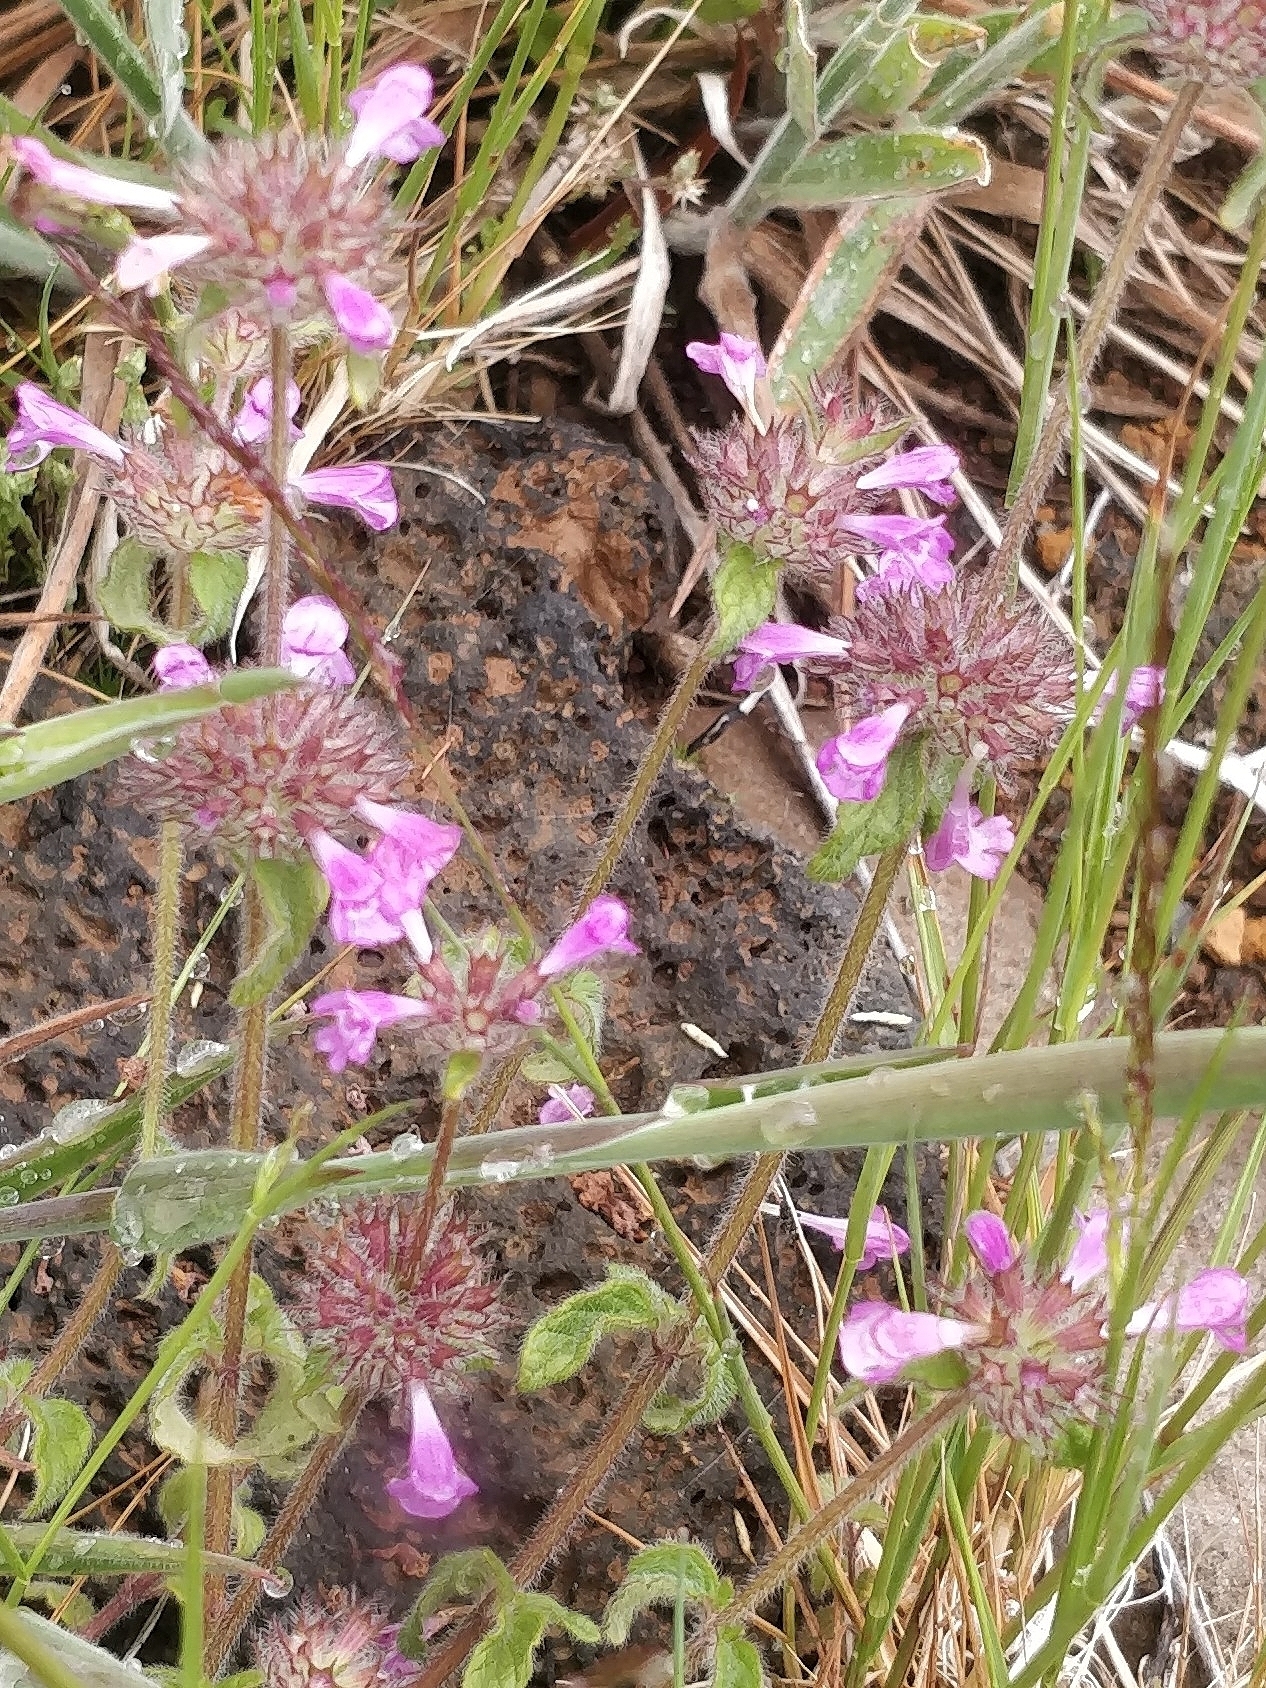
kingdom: Plantae
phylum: Tracheophyta
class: Magnoliopsida
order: Lamiales
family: Lamiaceae
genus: Clinopodium
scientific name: Clinopodium vulgare
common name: Wild basil
